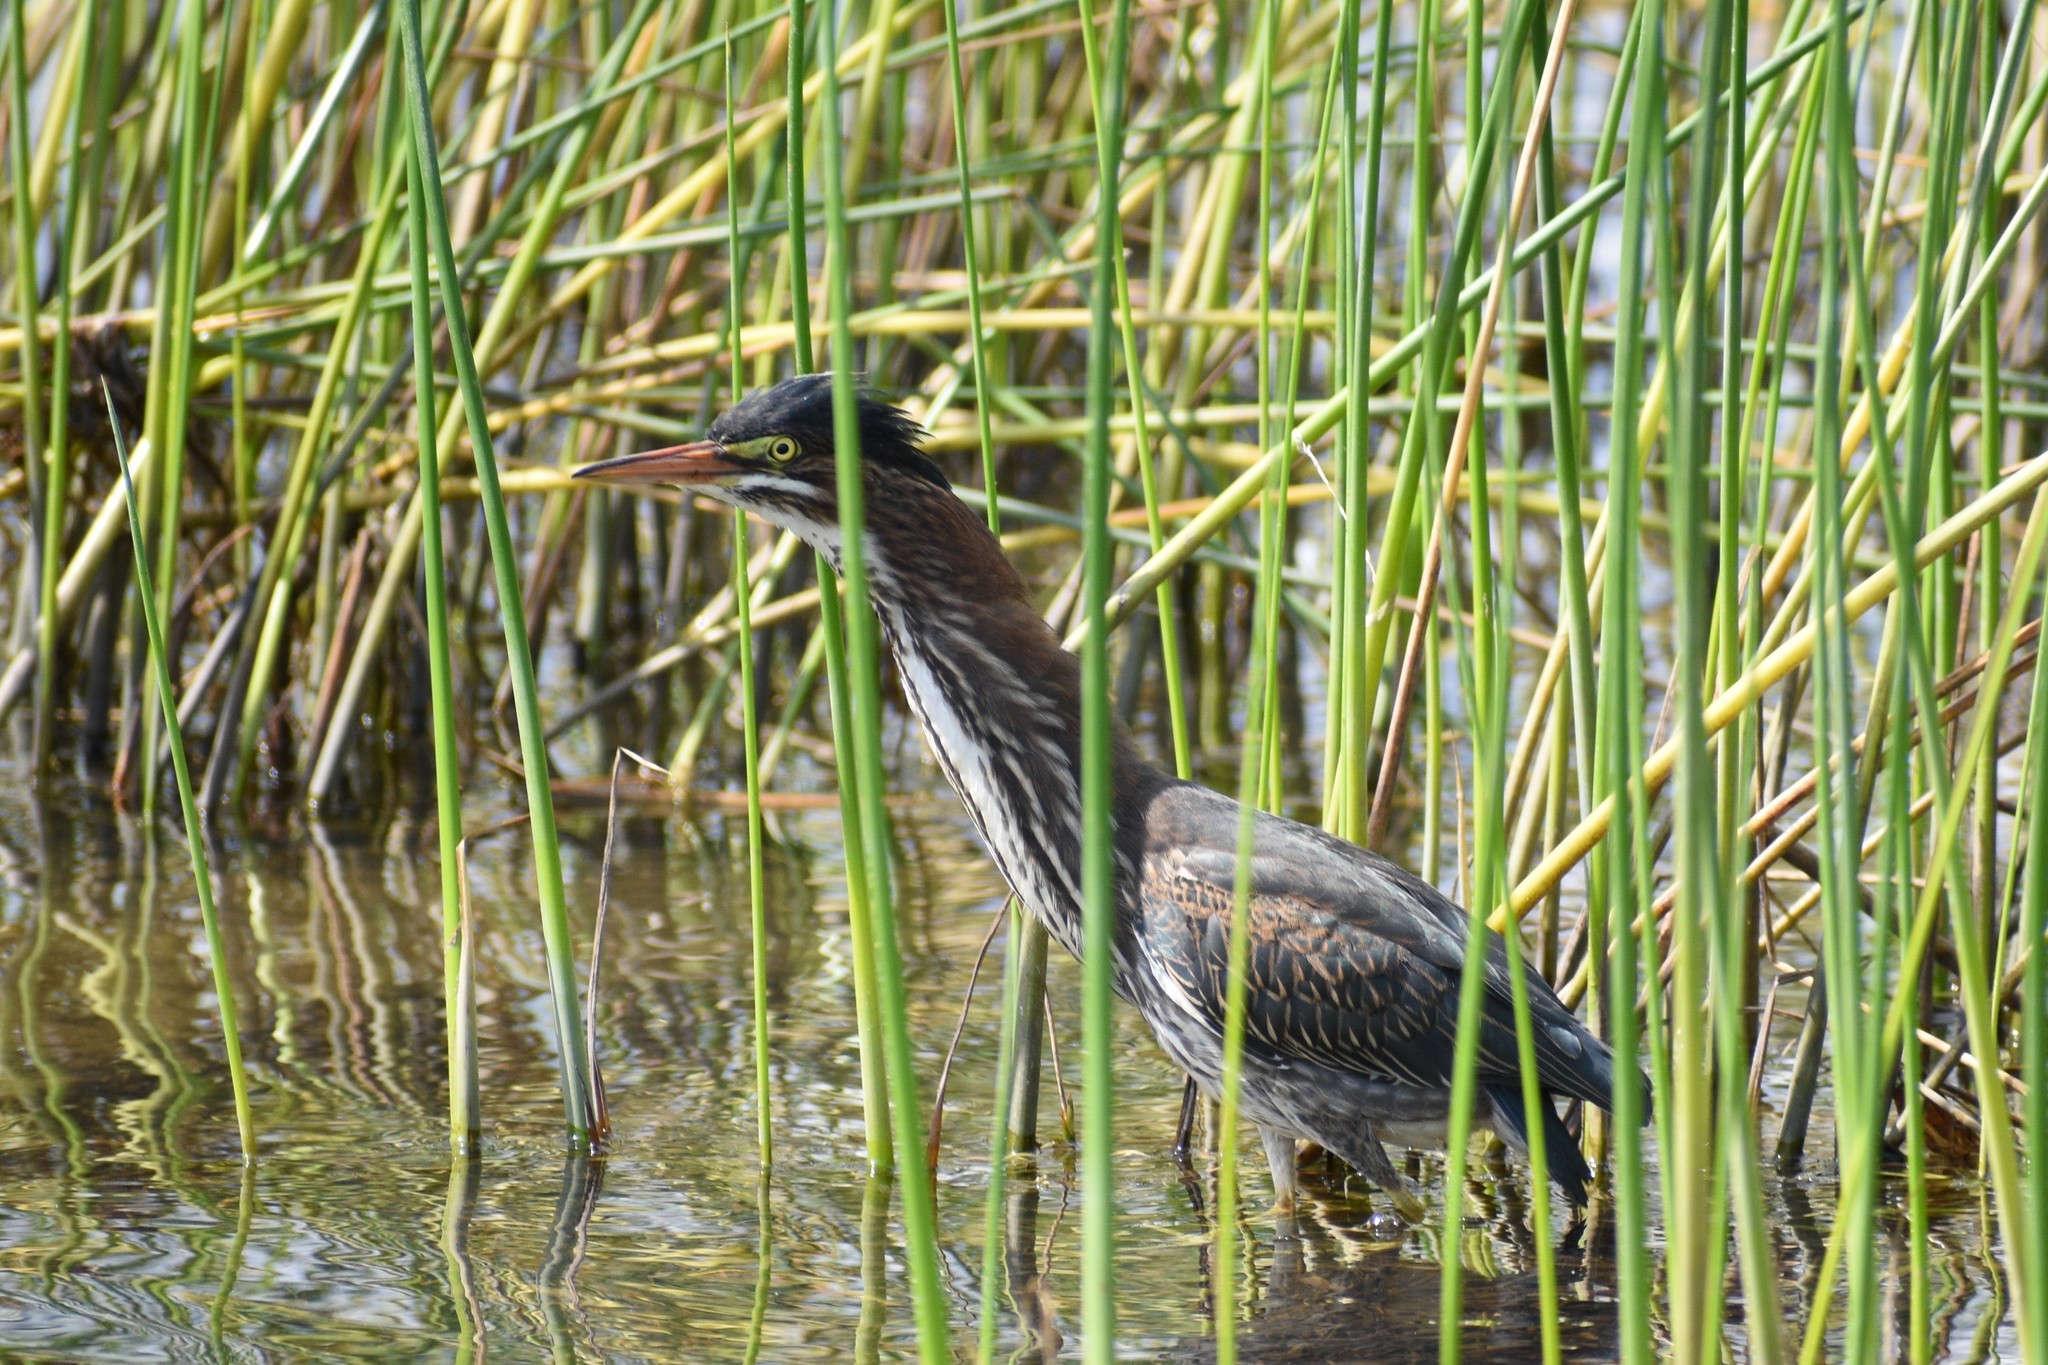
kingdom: Animalia
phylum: Chordata
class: Aves
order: Pelecaniformes
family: Ardeidae
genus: Butorides
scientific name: Butorides virescens
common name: Green heron
